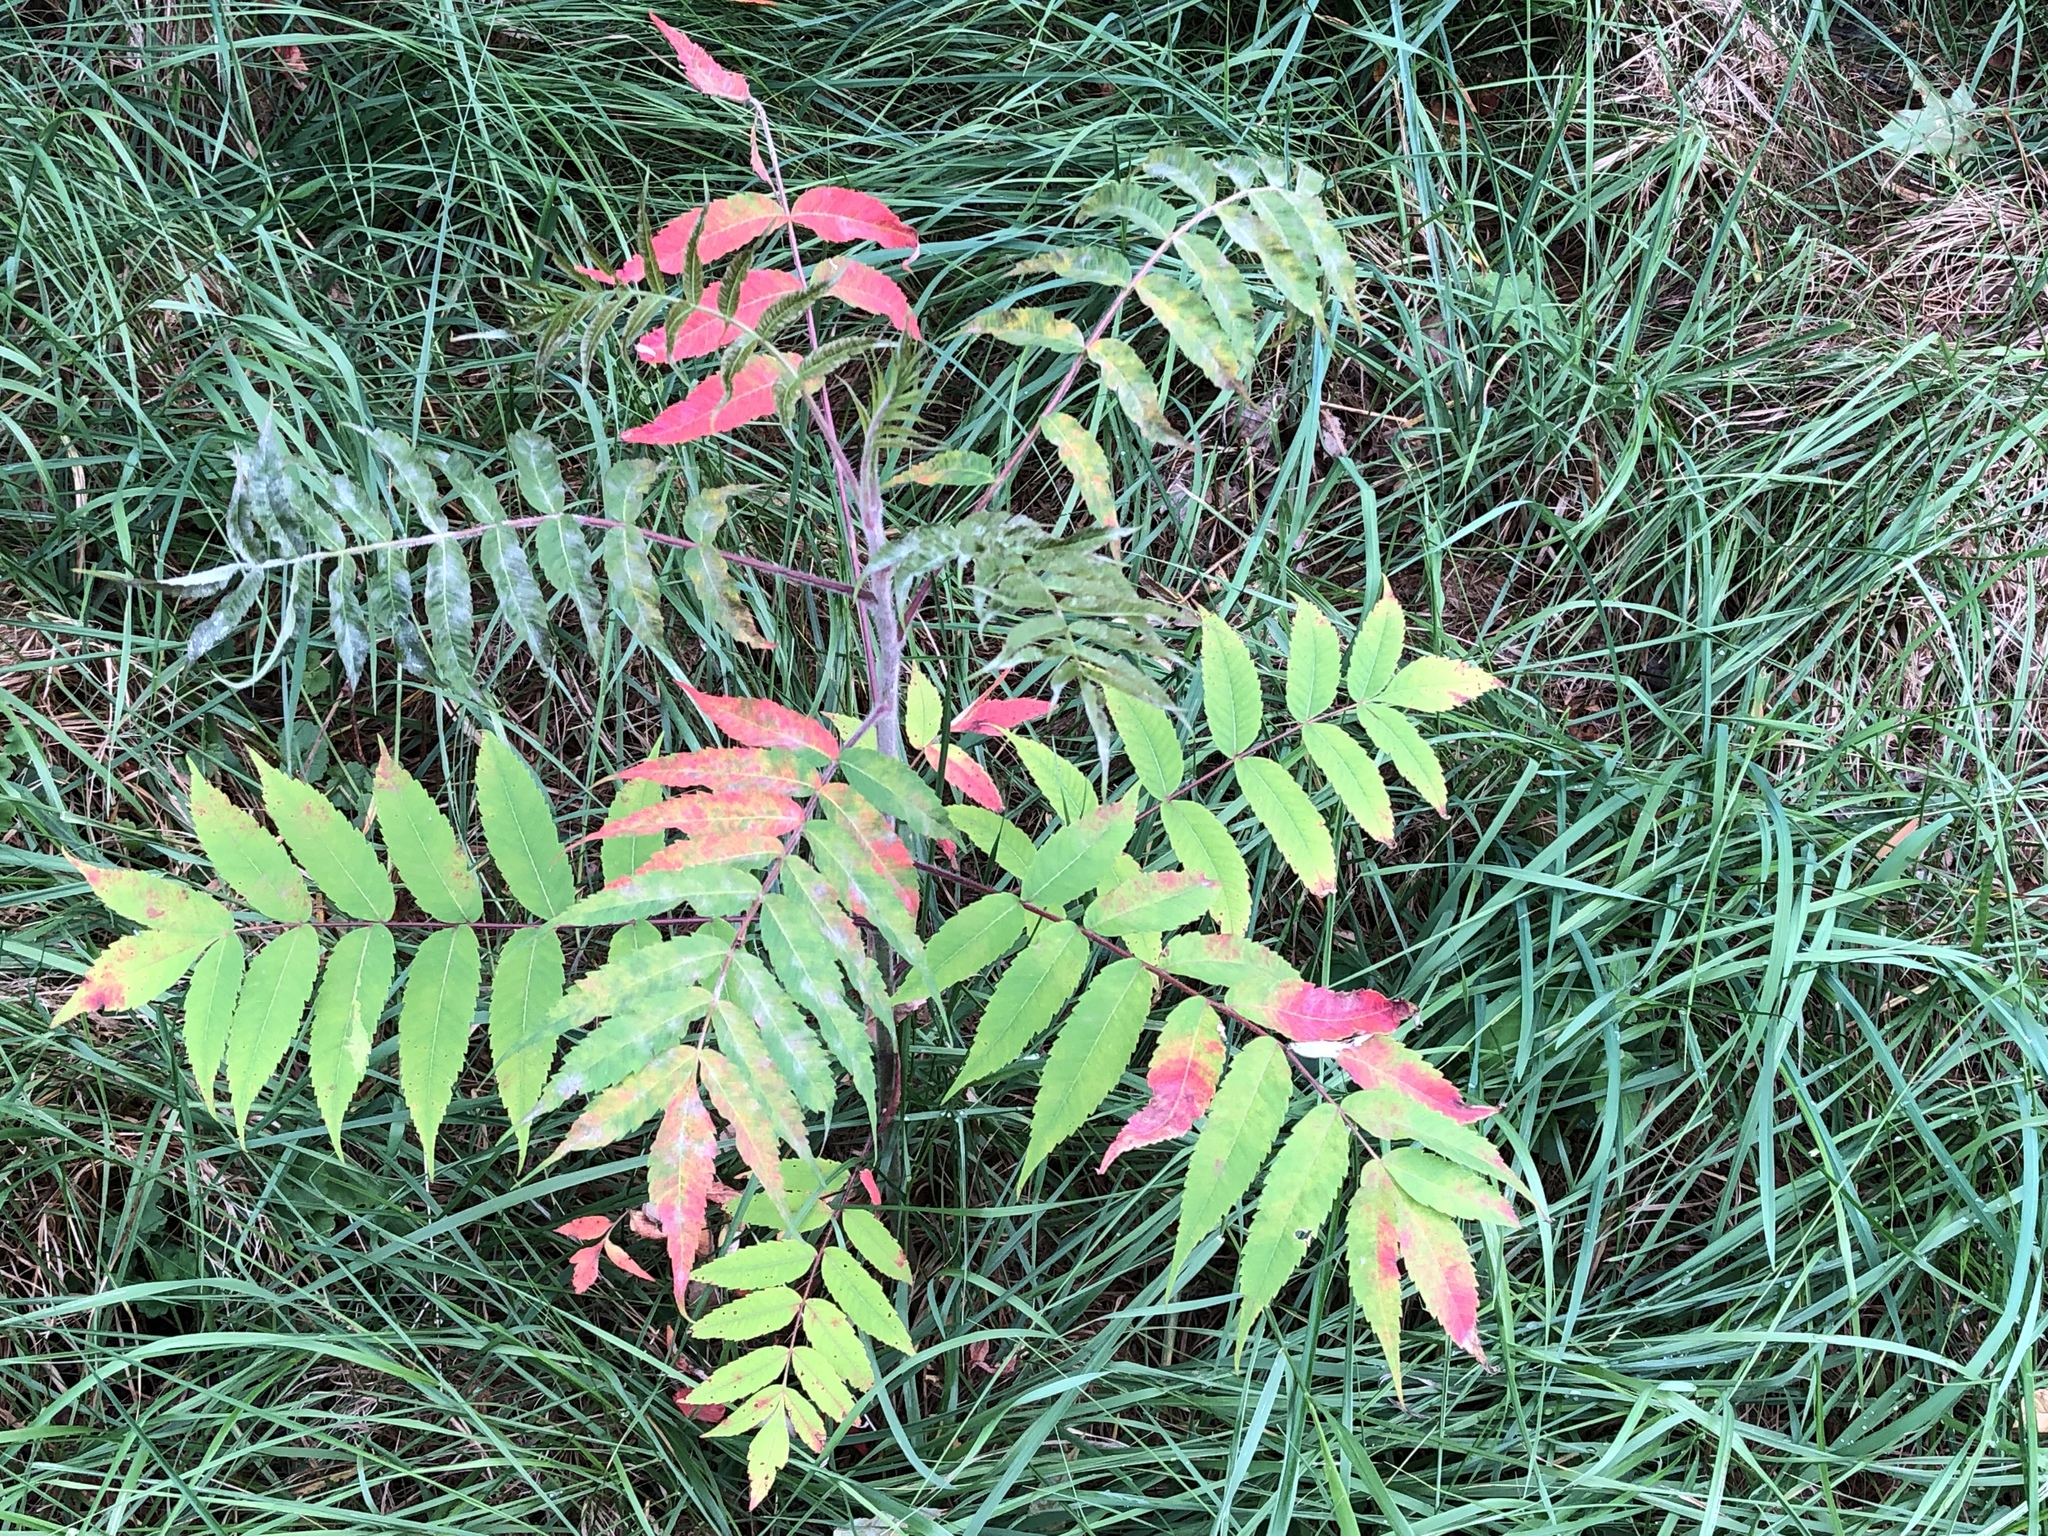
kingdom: Plantae
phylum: Tracheophyta
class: Magnoliopsida
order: Sapindales
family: Anacardiaceae
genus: Rhus
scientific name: Rhus typhina
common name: Staghorn sumac
